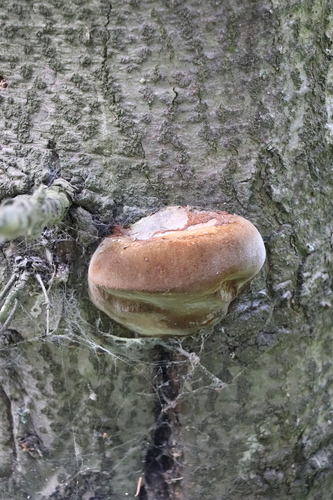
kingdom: Fungi
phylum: Basidiomycota
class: Agaricomycetes
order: Hymenochaetales
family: Hymenochaetaceae
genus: Phellinus
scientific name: Phellinus hartigii
